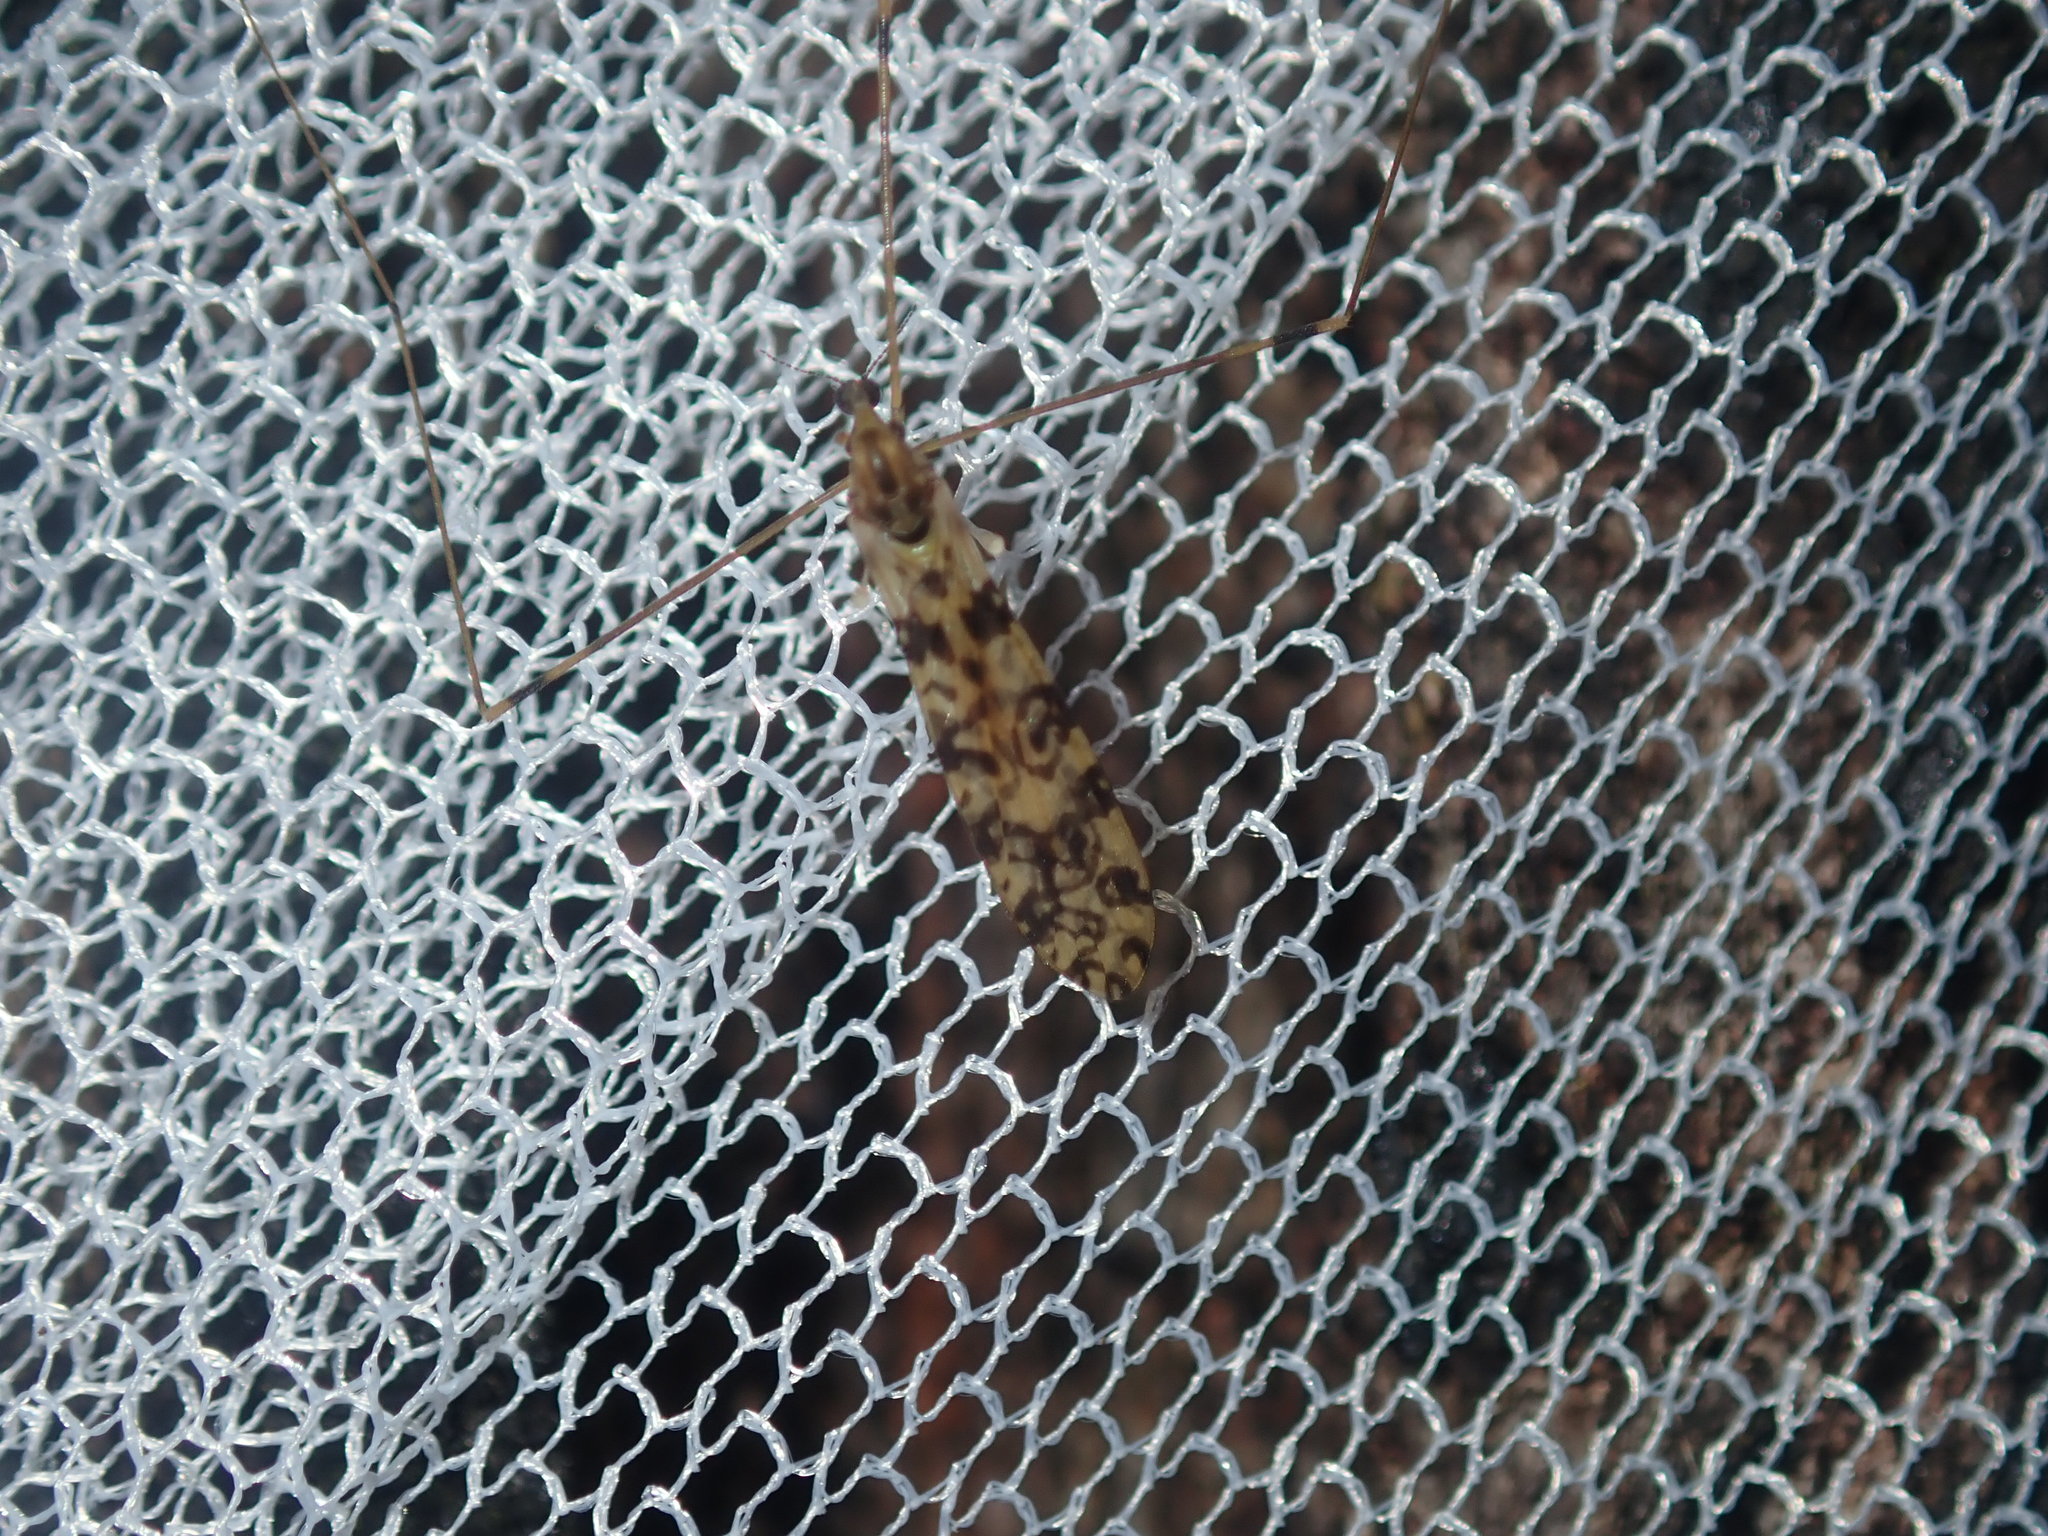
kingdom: Animalia
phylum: Arthropoda
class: Insecta
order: Diptera
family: Limoniidae
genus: Discobola
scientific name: Discobola australis
